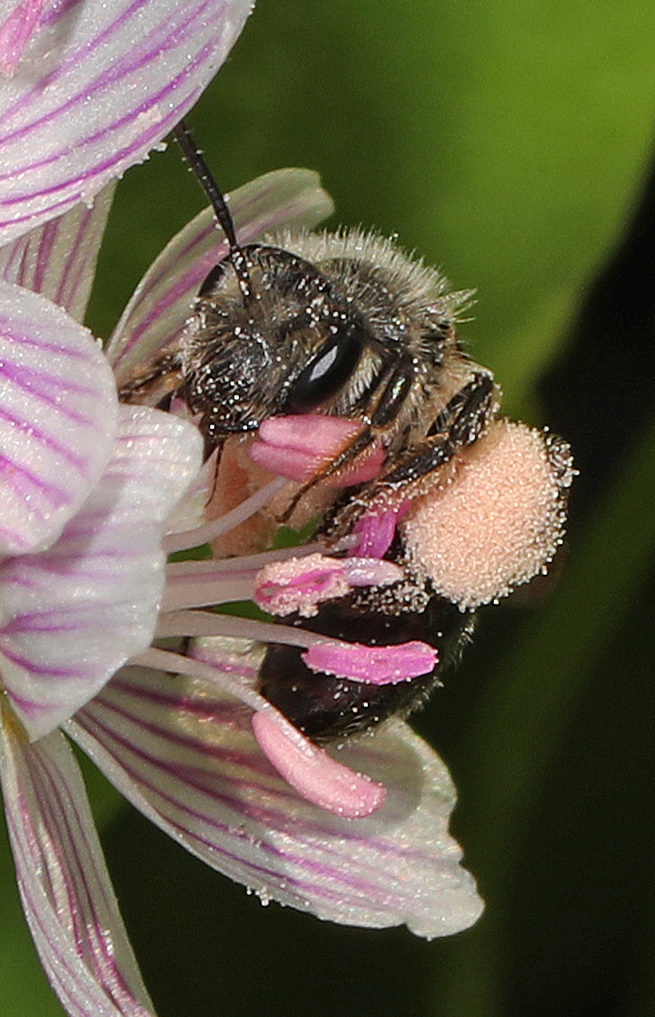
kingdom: Animalia
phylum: Arthropoda
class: Insecta
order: Hymenoptera
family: Andrenidae
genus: Andrena
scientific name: Andrena erigeniae
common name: Spring beauty miner
